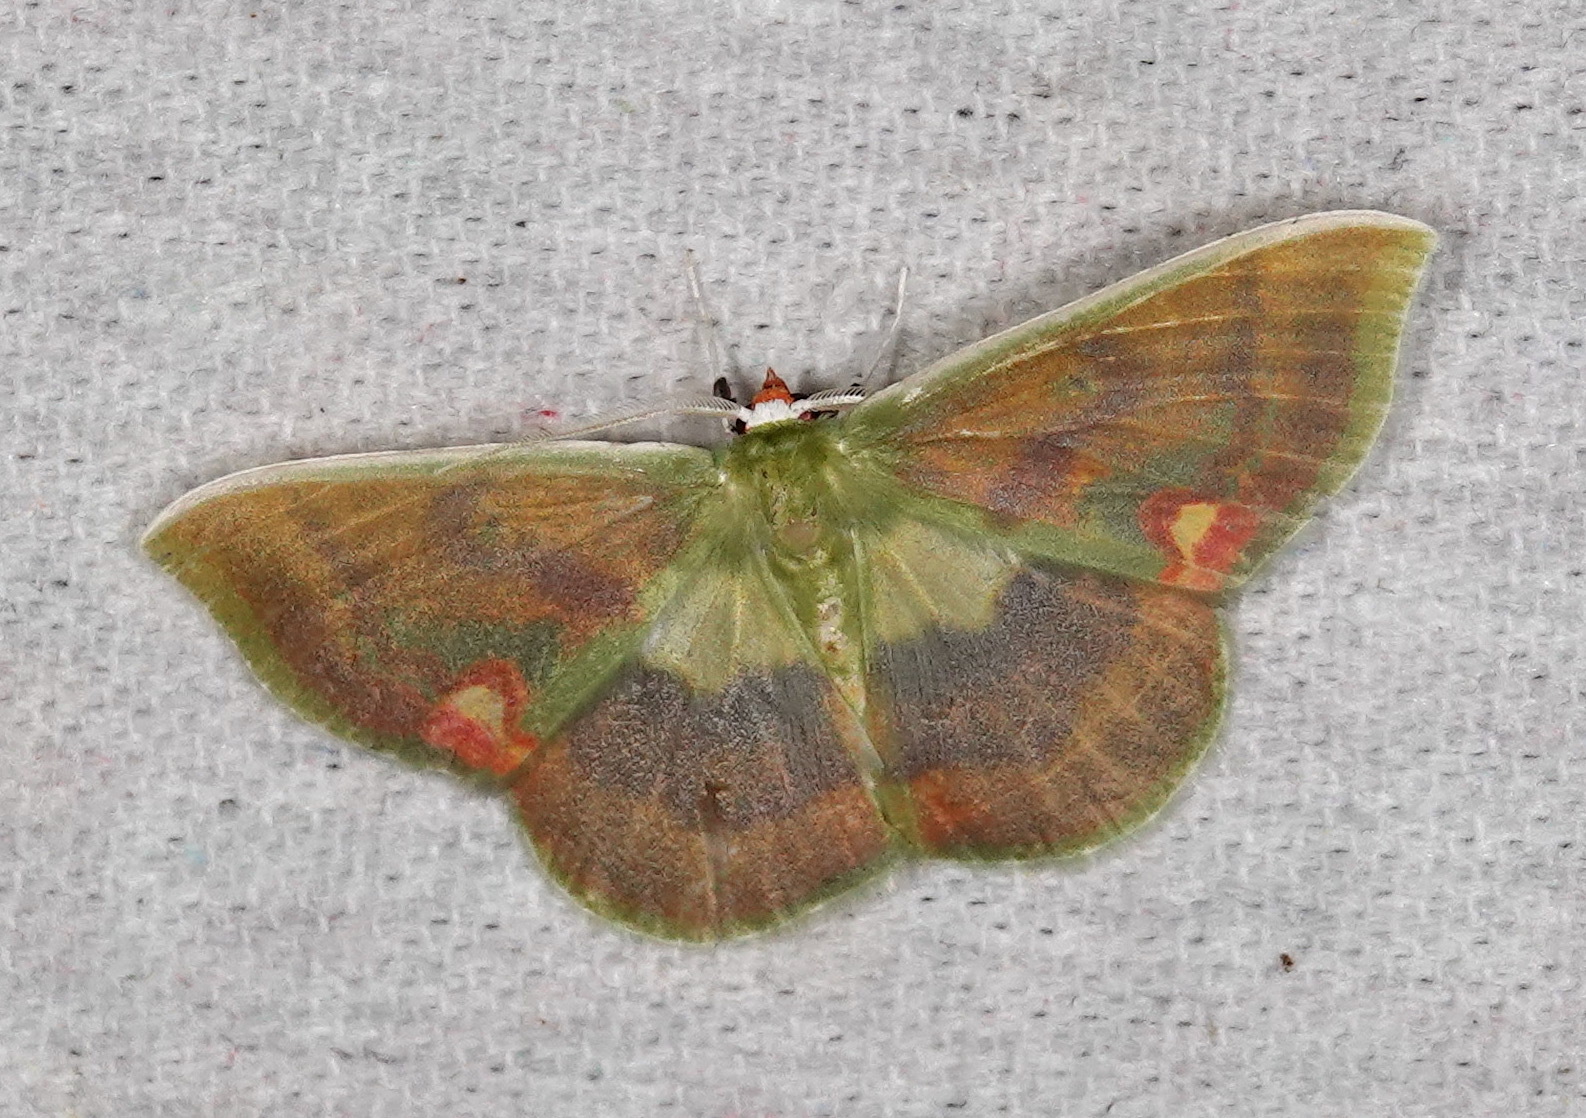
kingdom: Animalia
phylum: Arthropoda
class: Insecta
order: Lepidoptera
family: Geometridae
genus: Rhodochlora
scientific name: Rhodochlora niepelti
